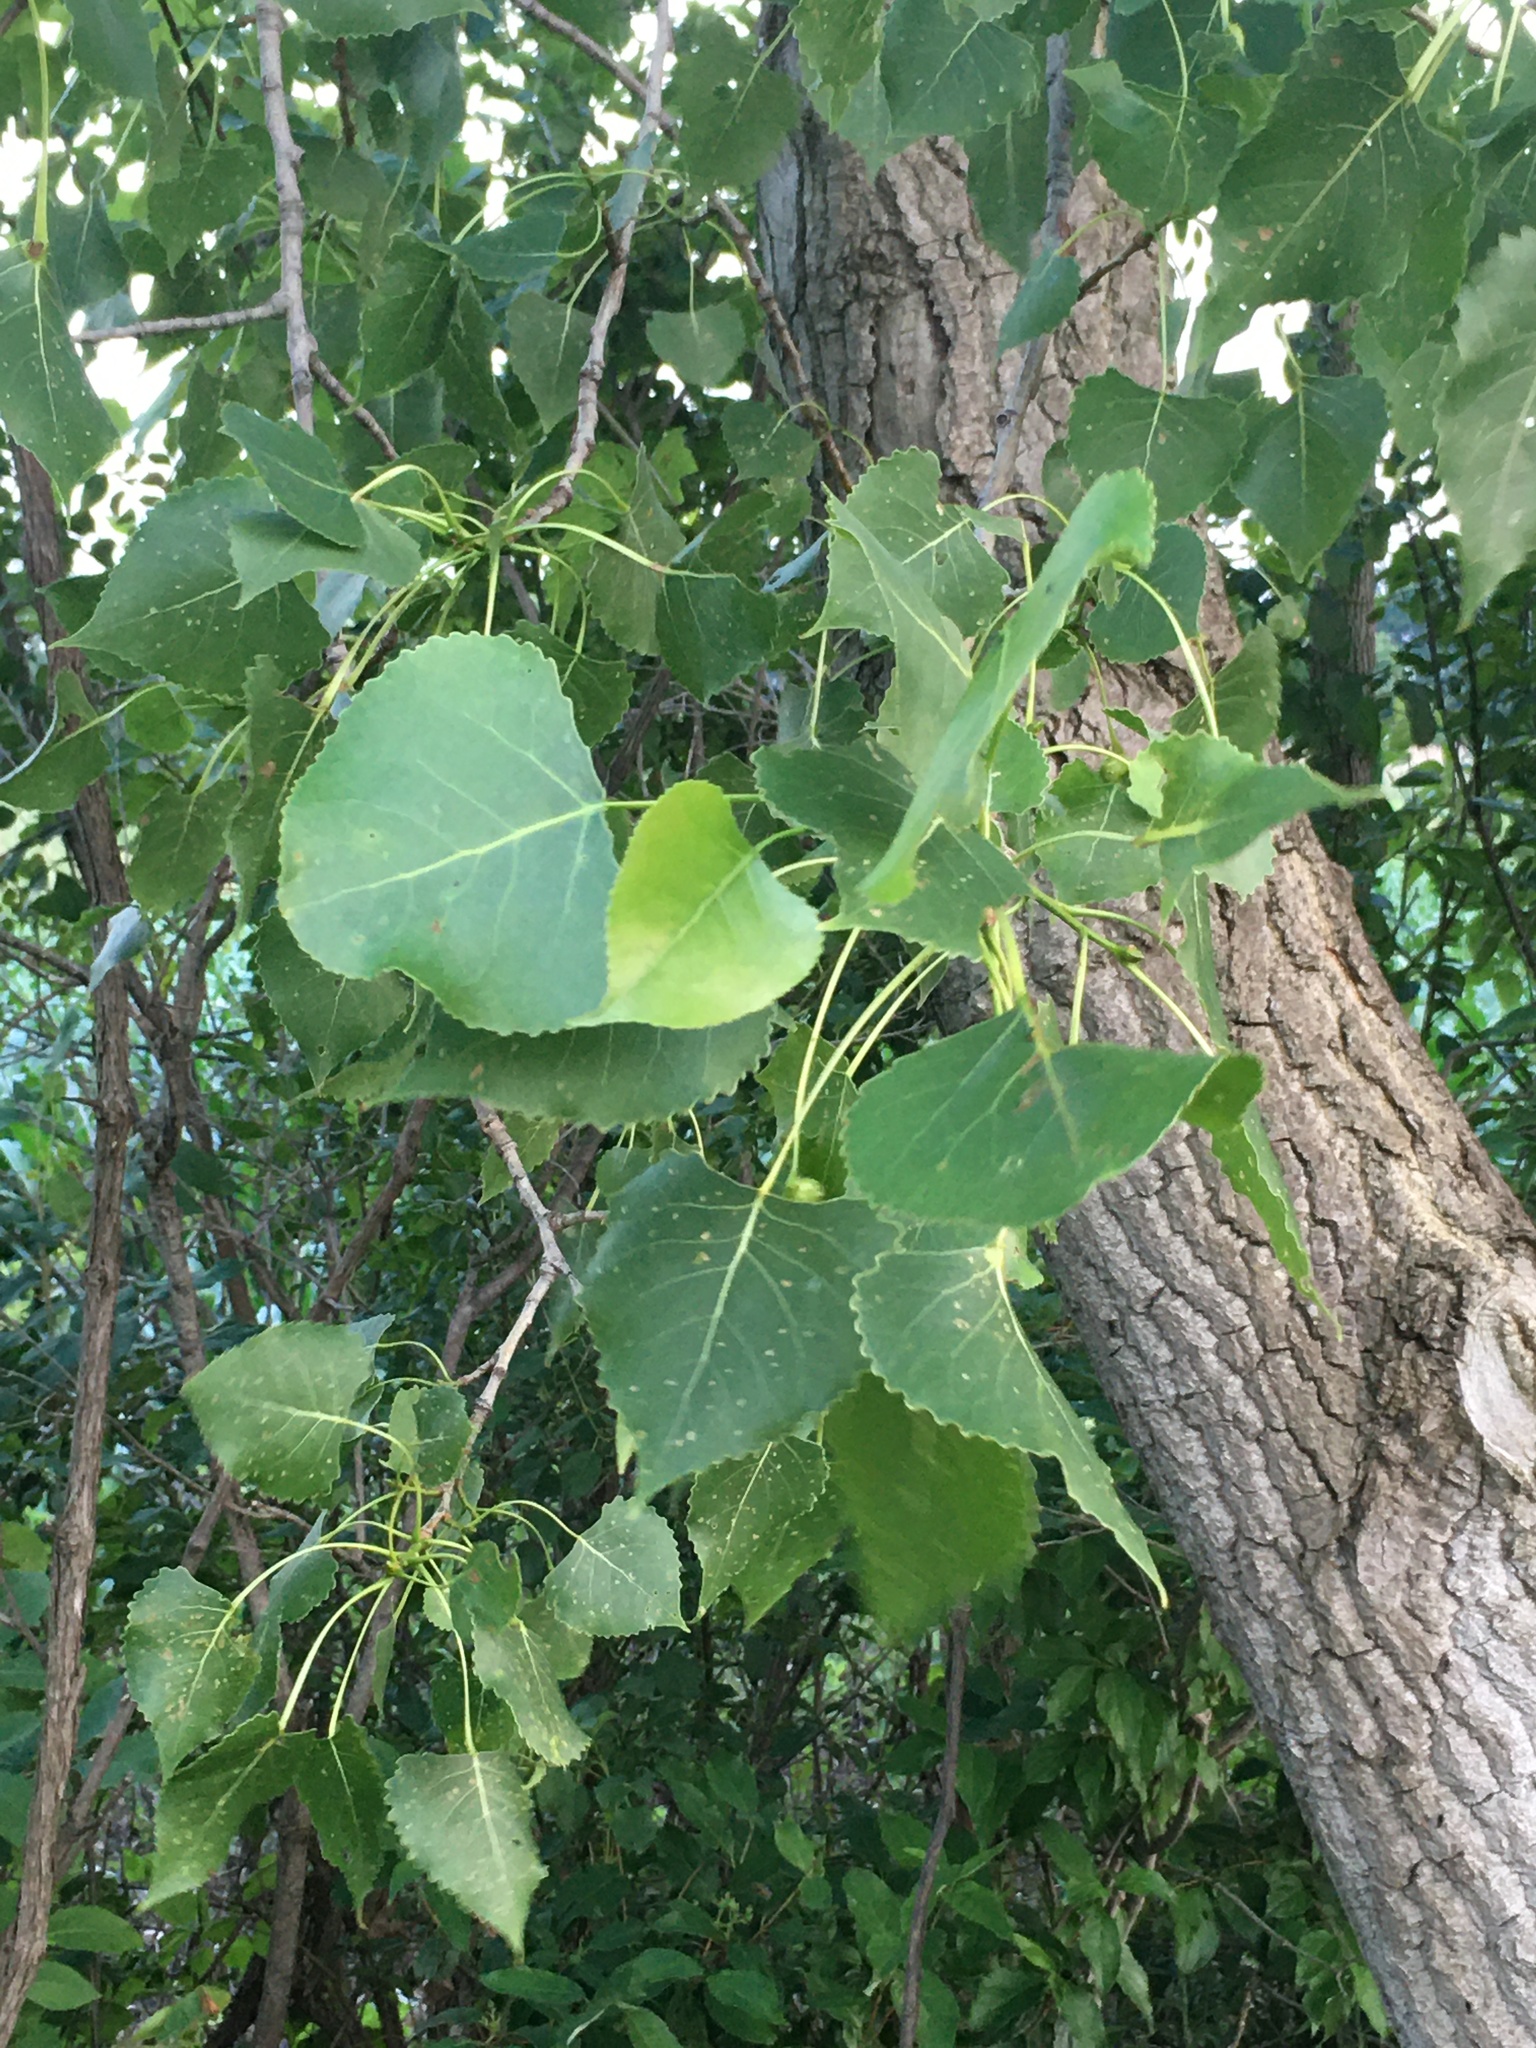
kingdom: Plantae
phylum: Tracheophyta
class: Magnoliopsida
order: Malpighiales
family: Salicaceae
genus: Populus
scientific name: Populus deltoides
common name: Eastern cottonwood
